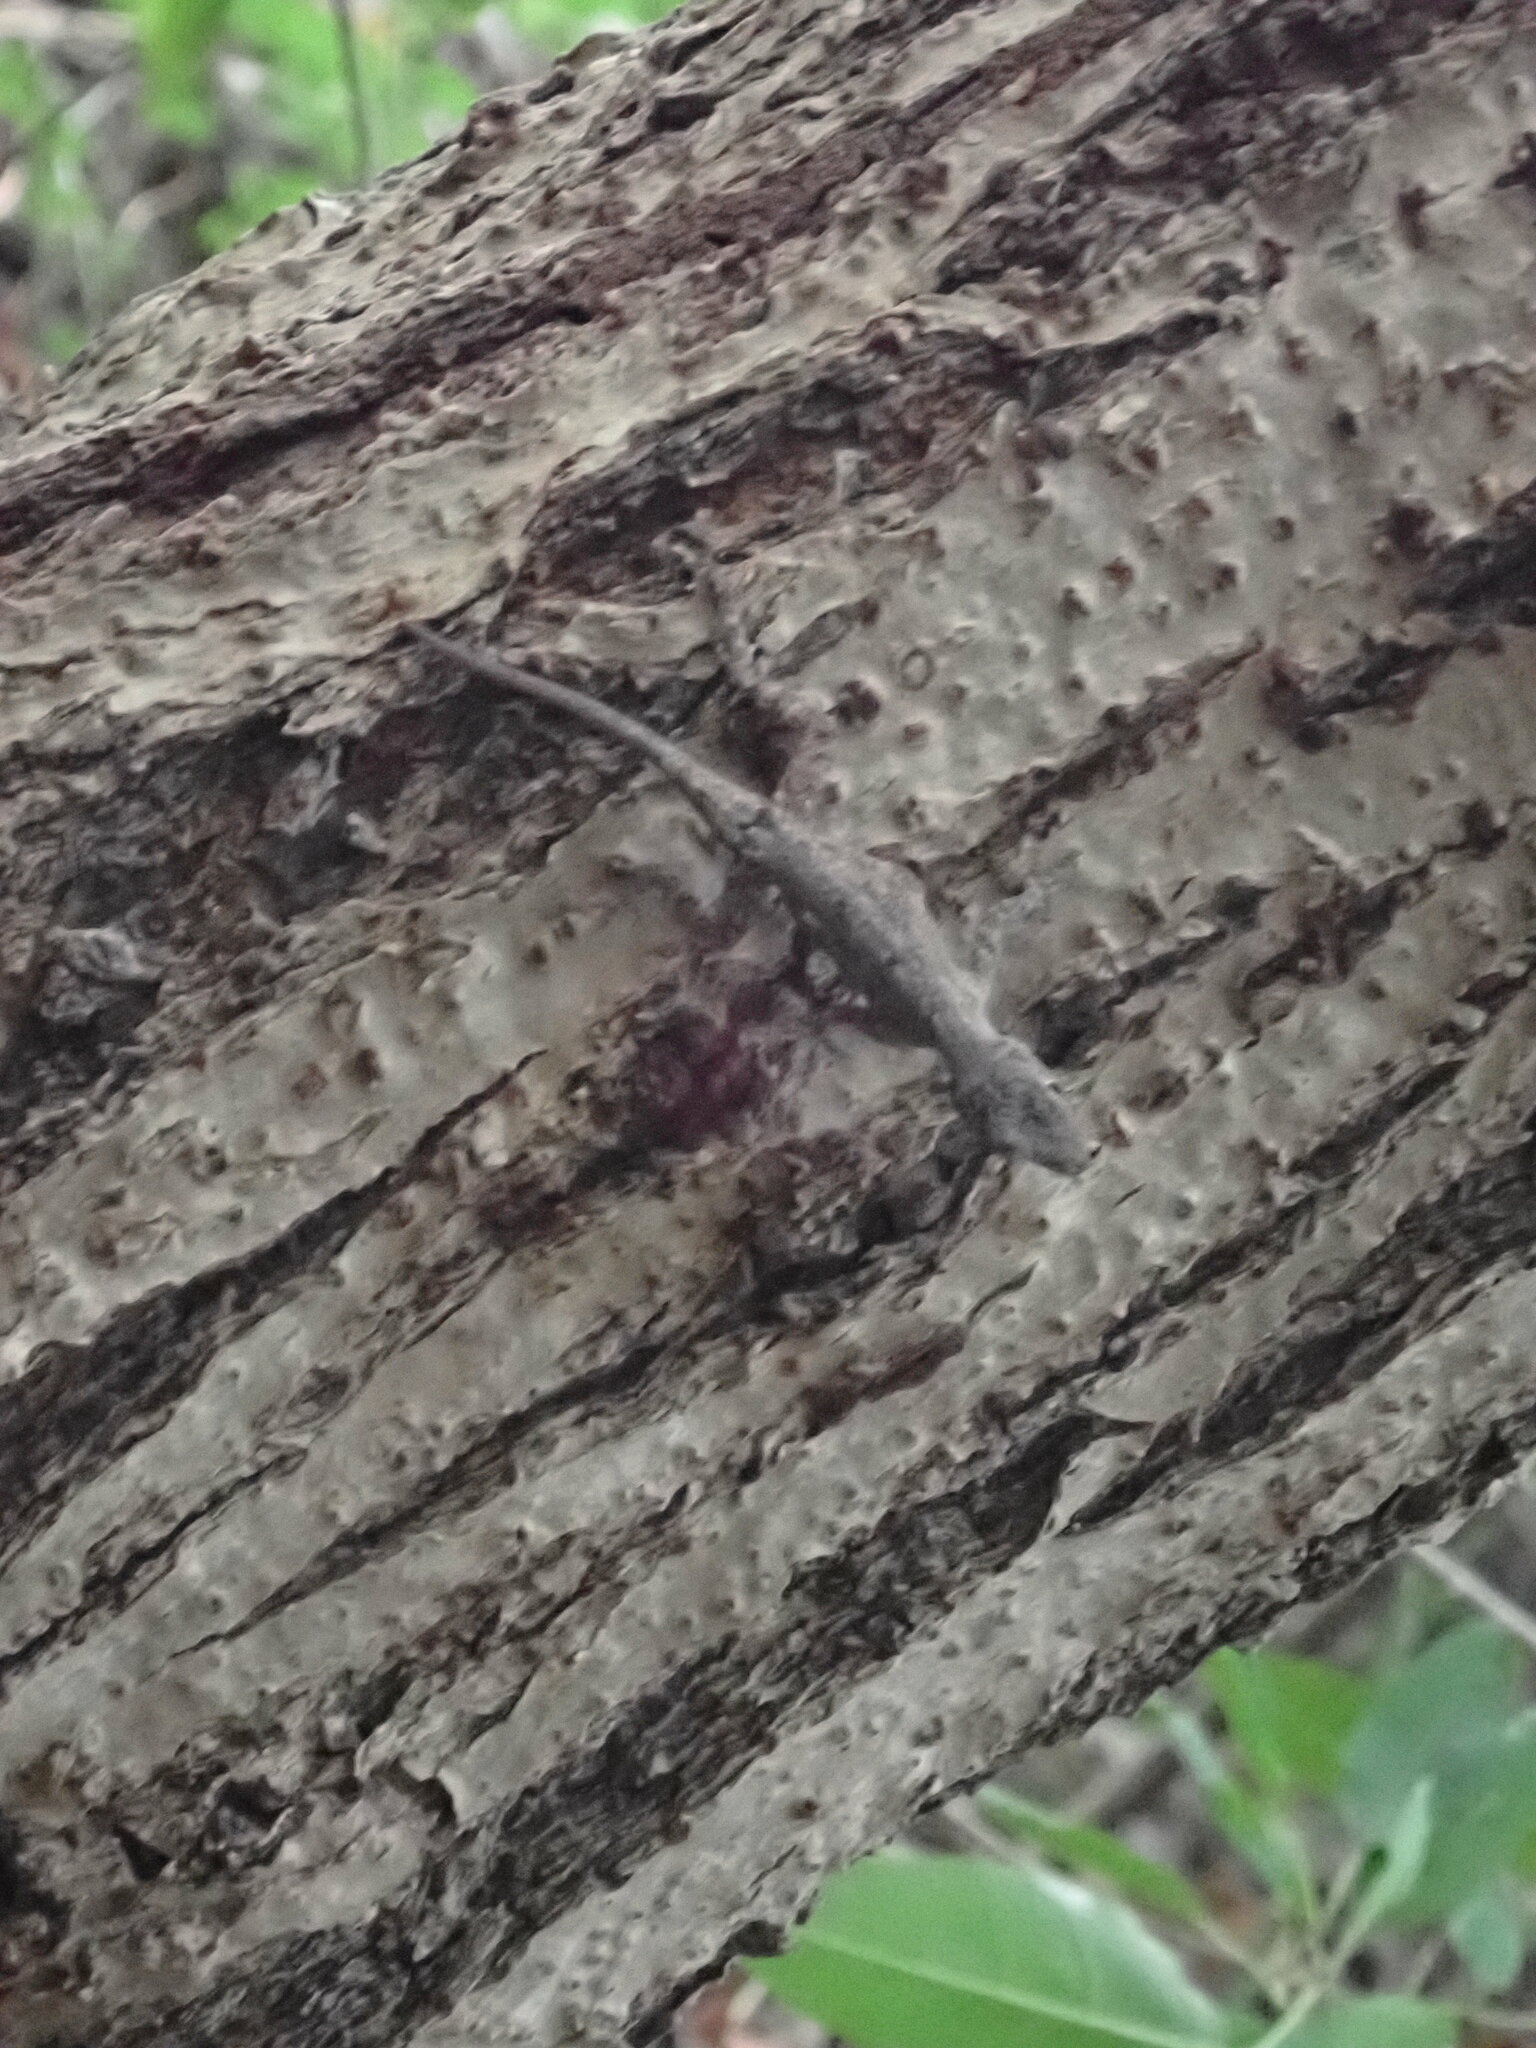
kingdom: Animalia
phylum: Chordata
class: Squamata
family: Dactyloidae
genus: Anolis
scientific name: Anolis distichus
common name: Bark anole
